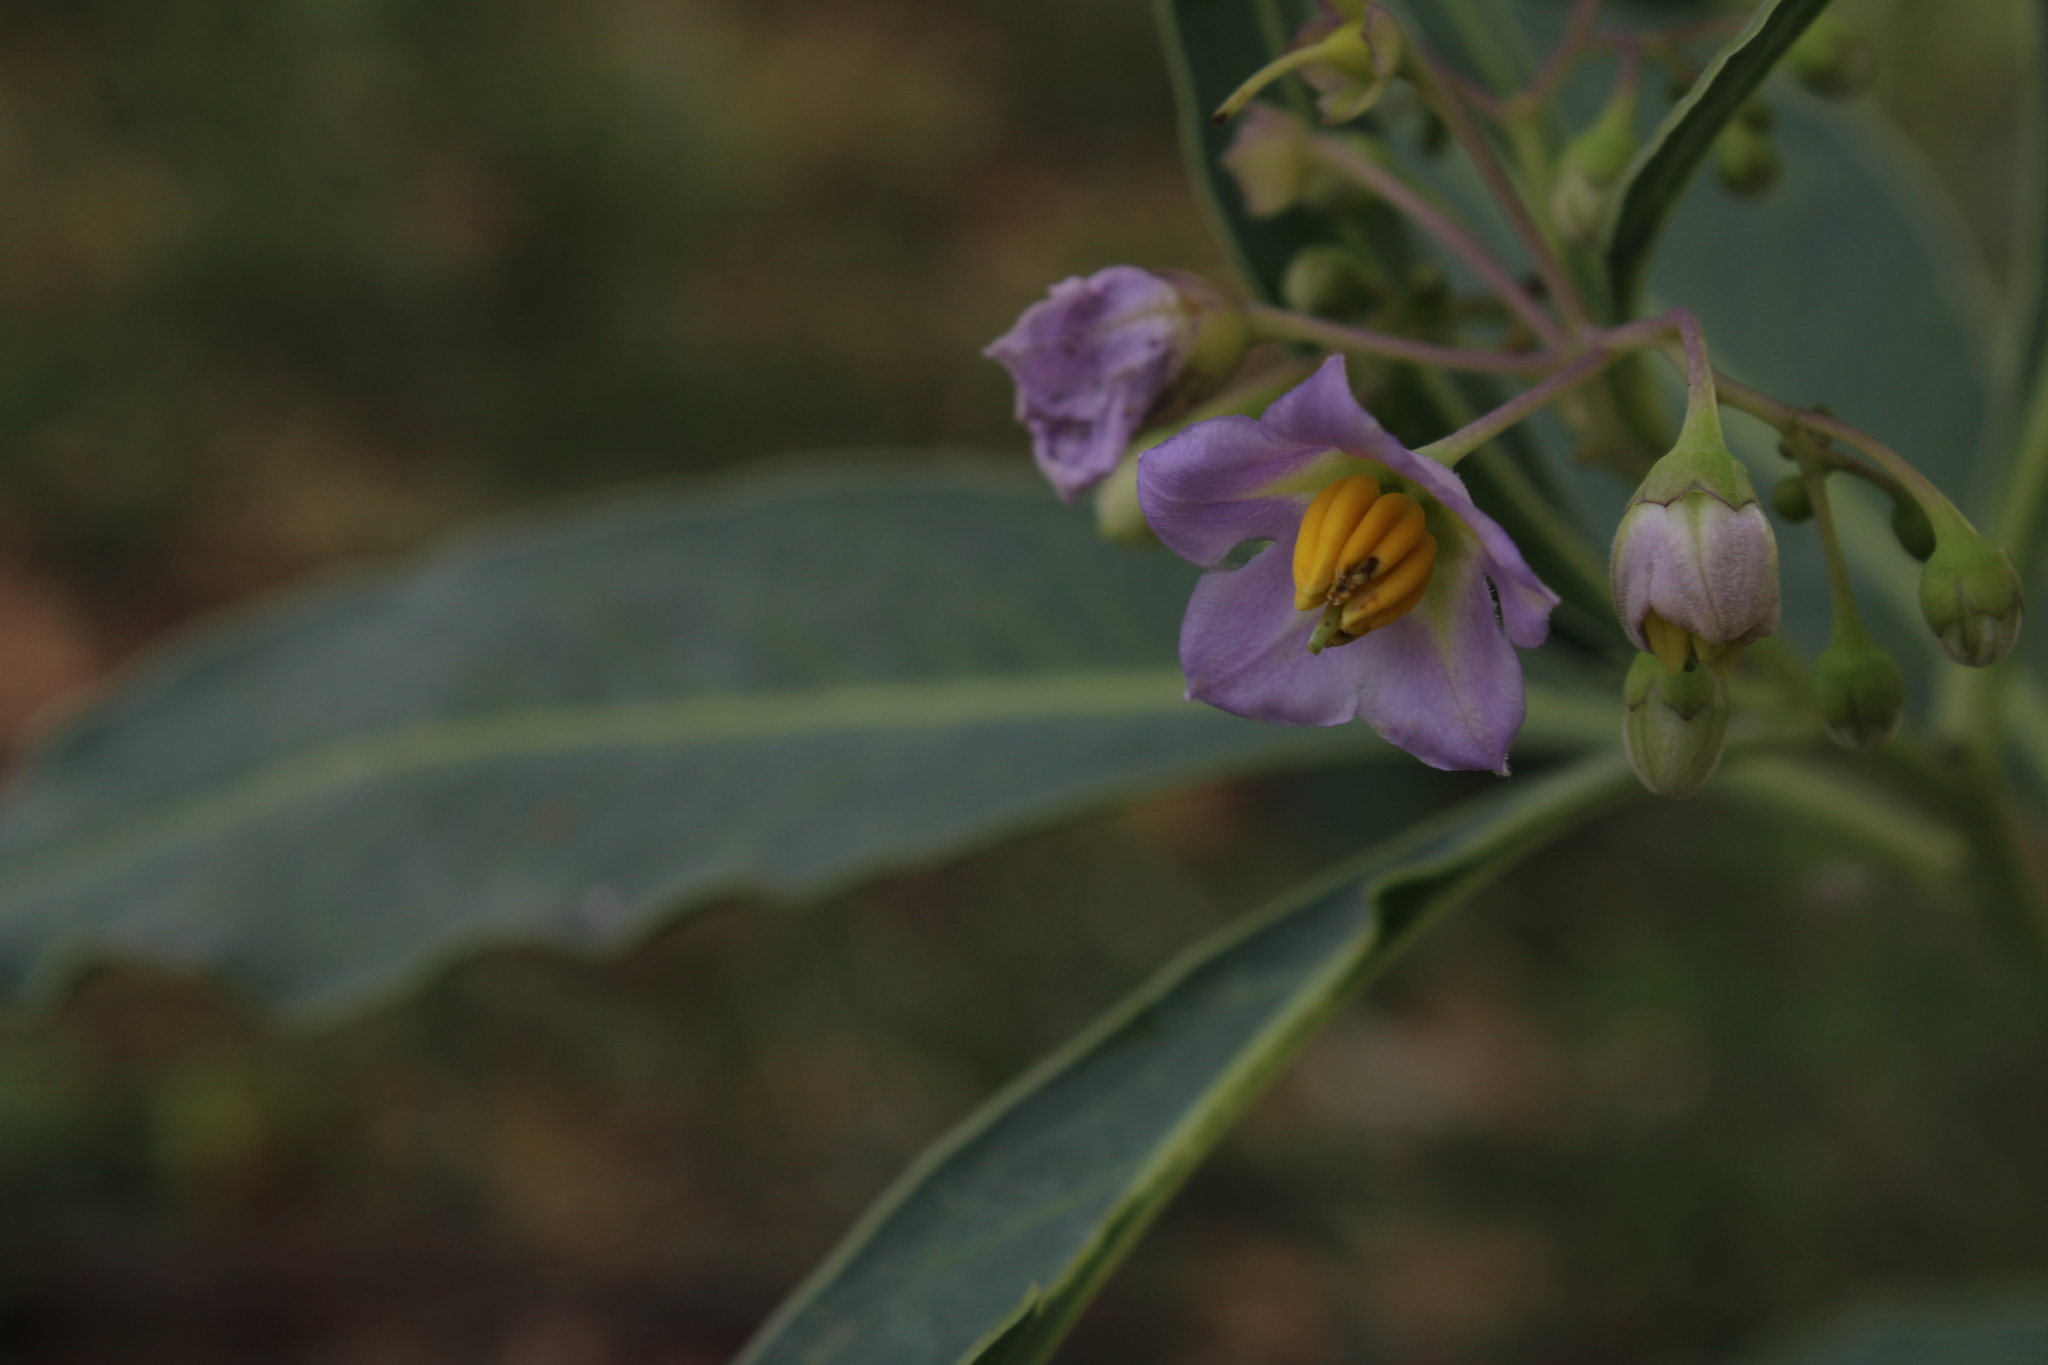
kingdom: Plantae
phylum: Tracheophyta
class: Magnoliopsida
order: Solanales
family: Solanaceae
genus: Solanum
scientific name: Solanum glaucophyllum
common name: Waxyleaf nightshade
